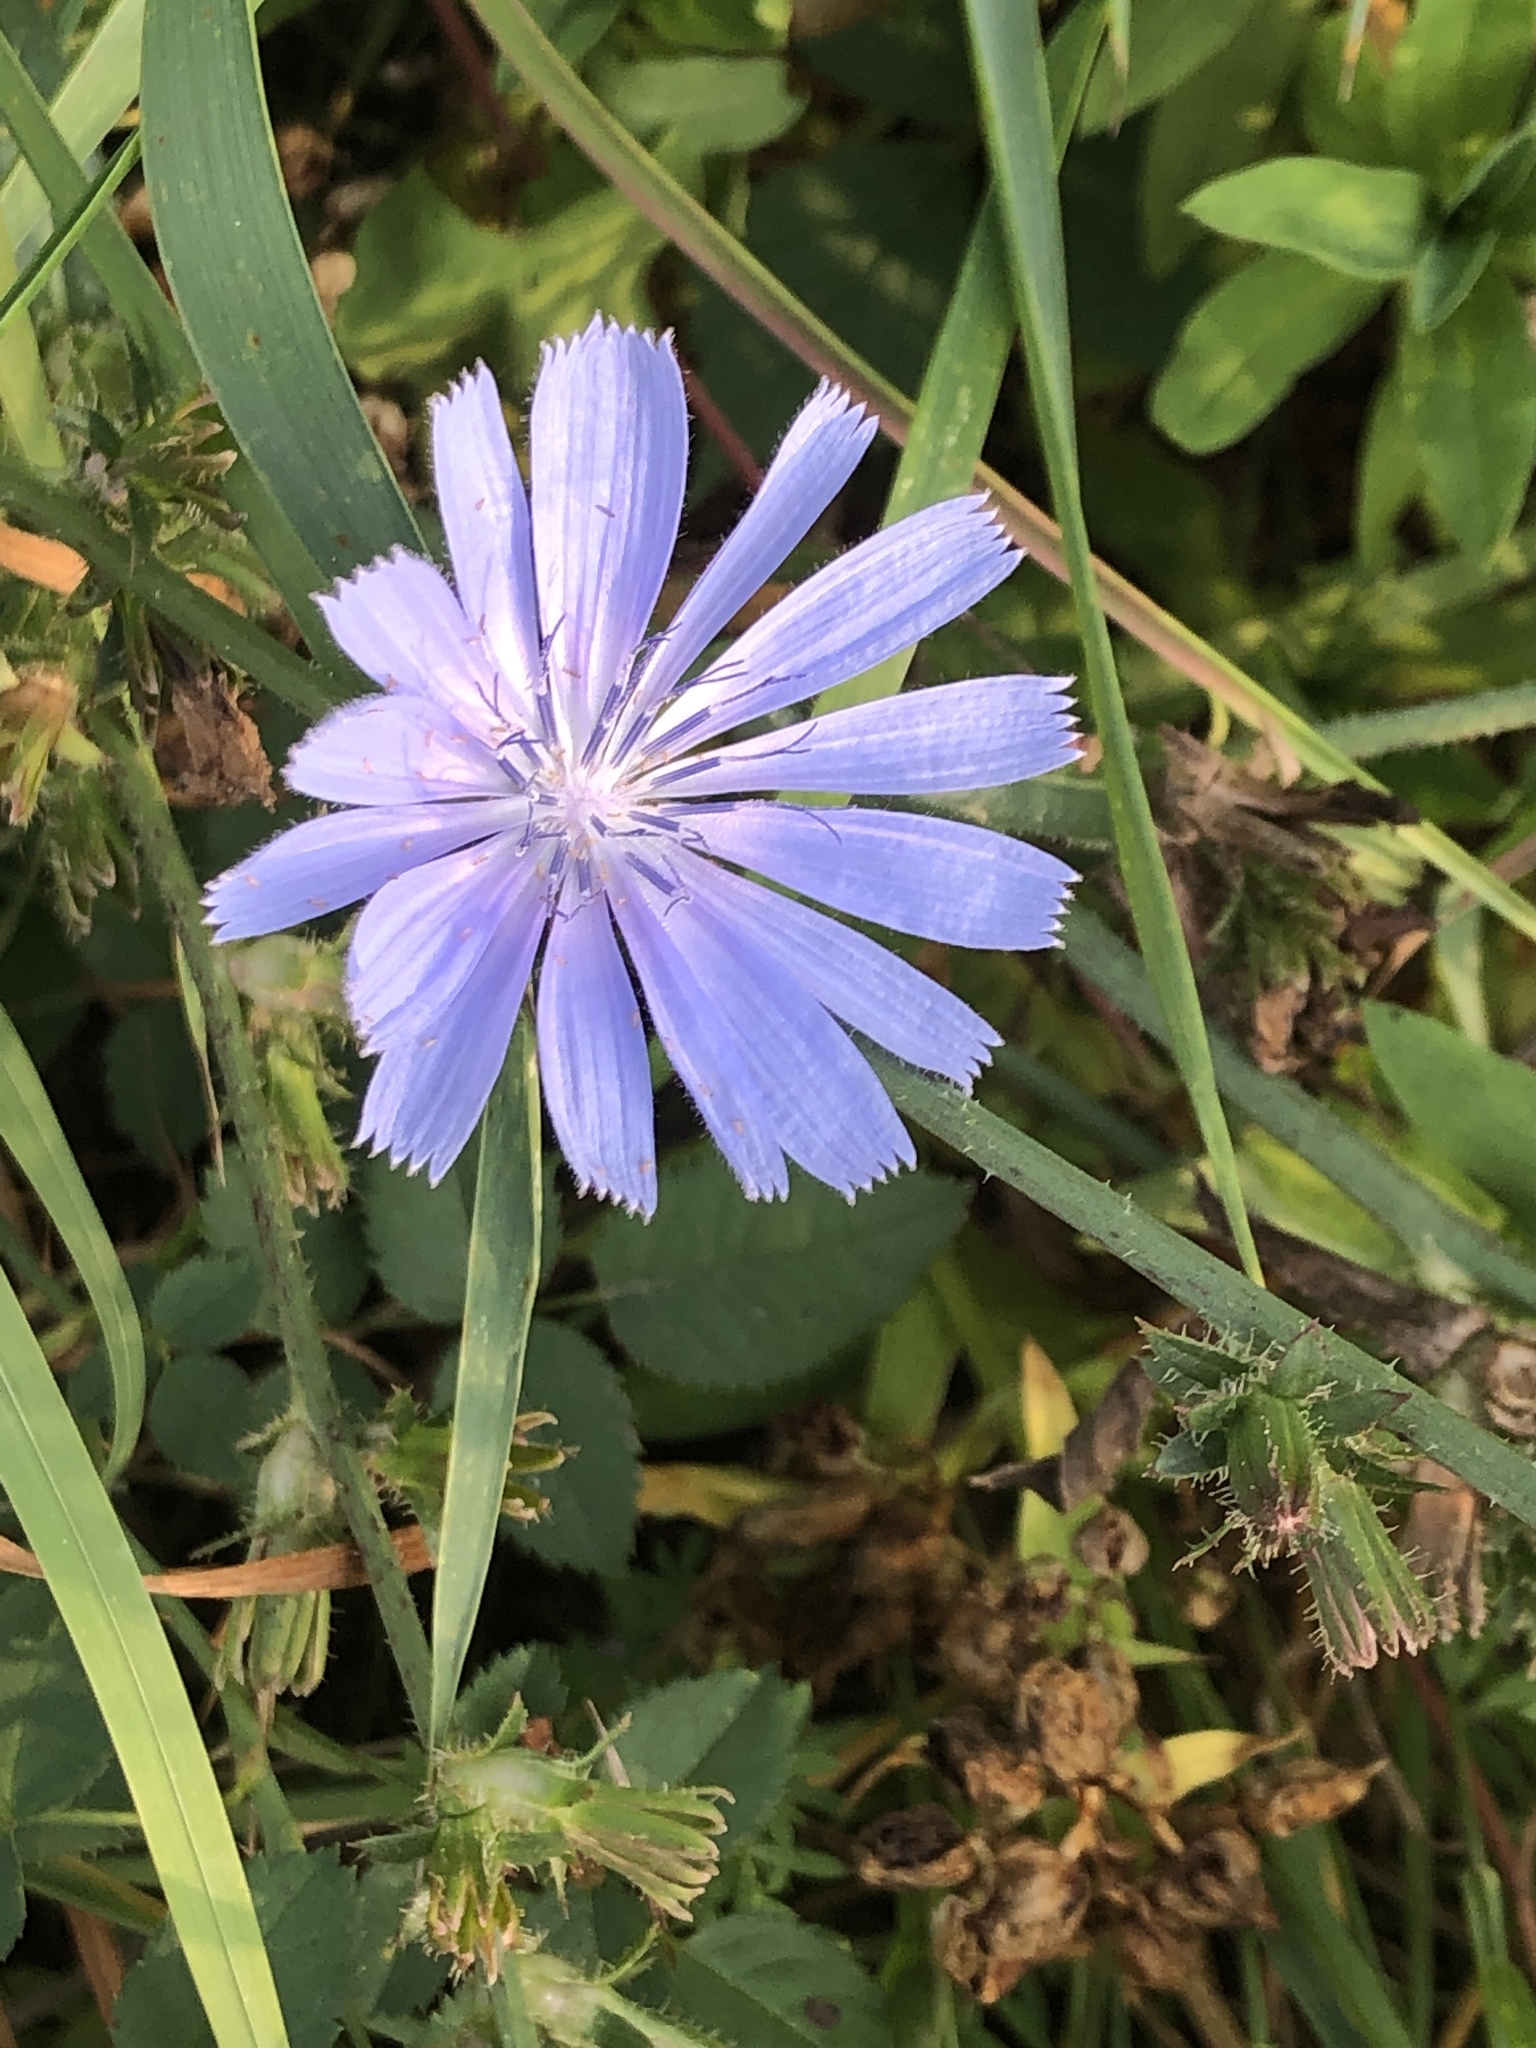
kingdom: Plantae
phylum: Tracheophyta
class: Magnoliopsida
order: Asterales
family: Asteraceae
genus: Cichorium
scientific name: Cichorium intybus
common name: Chicory
